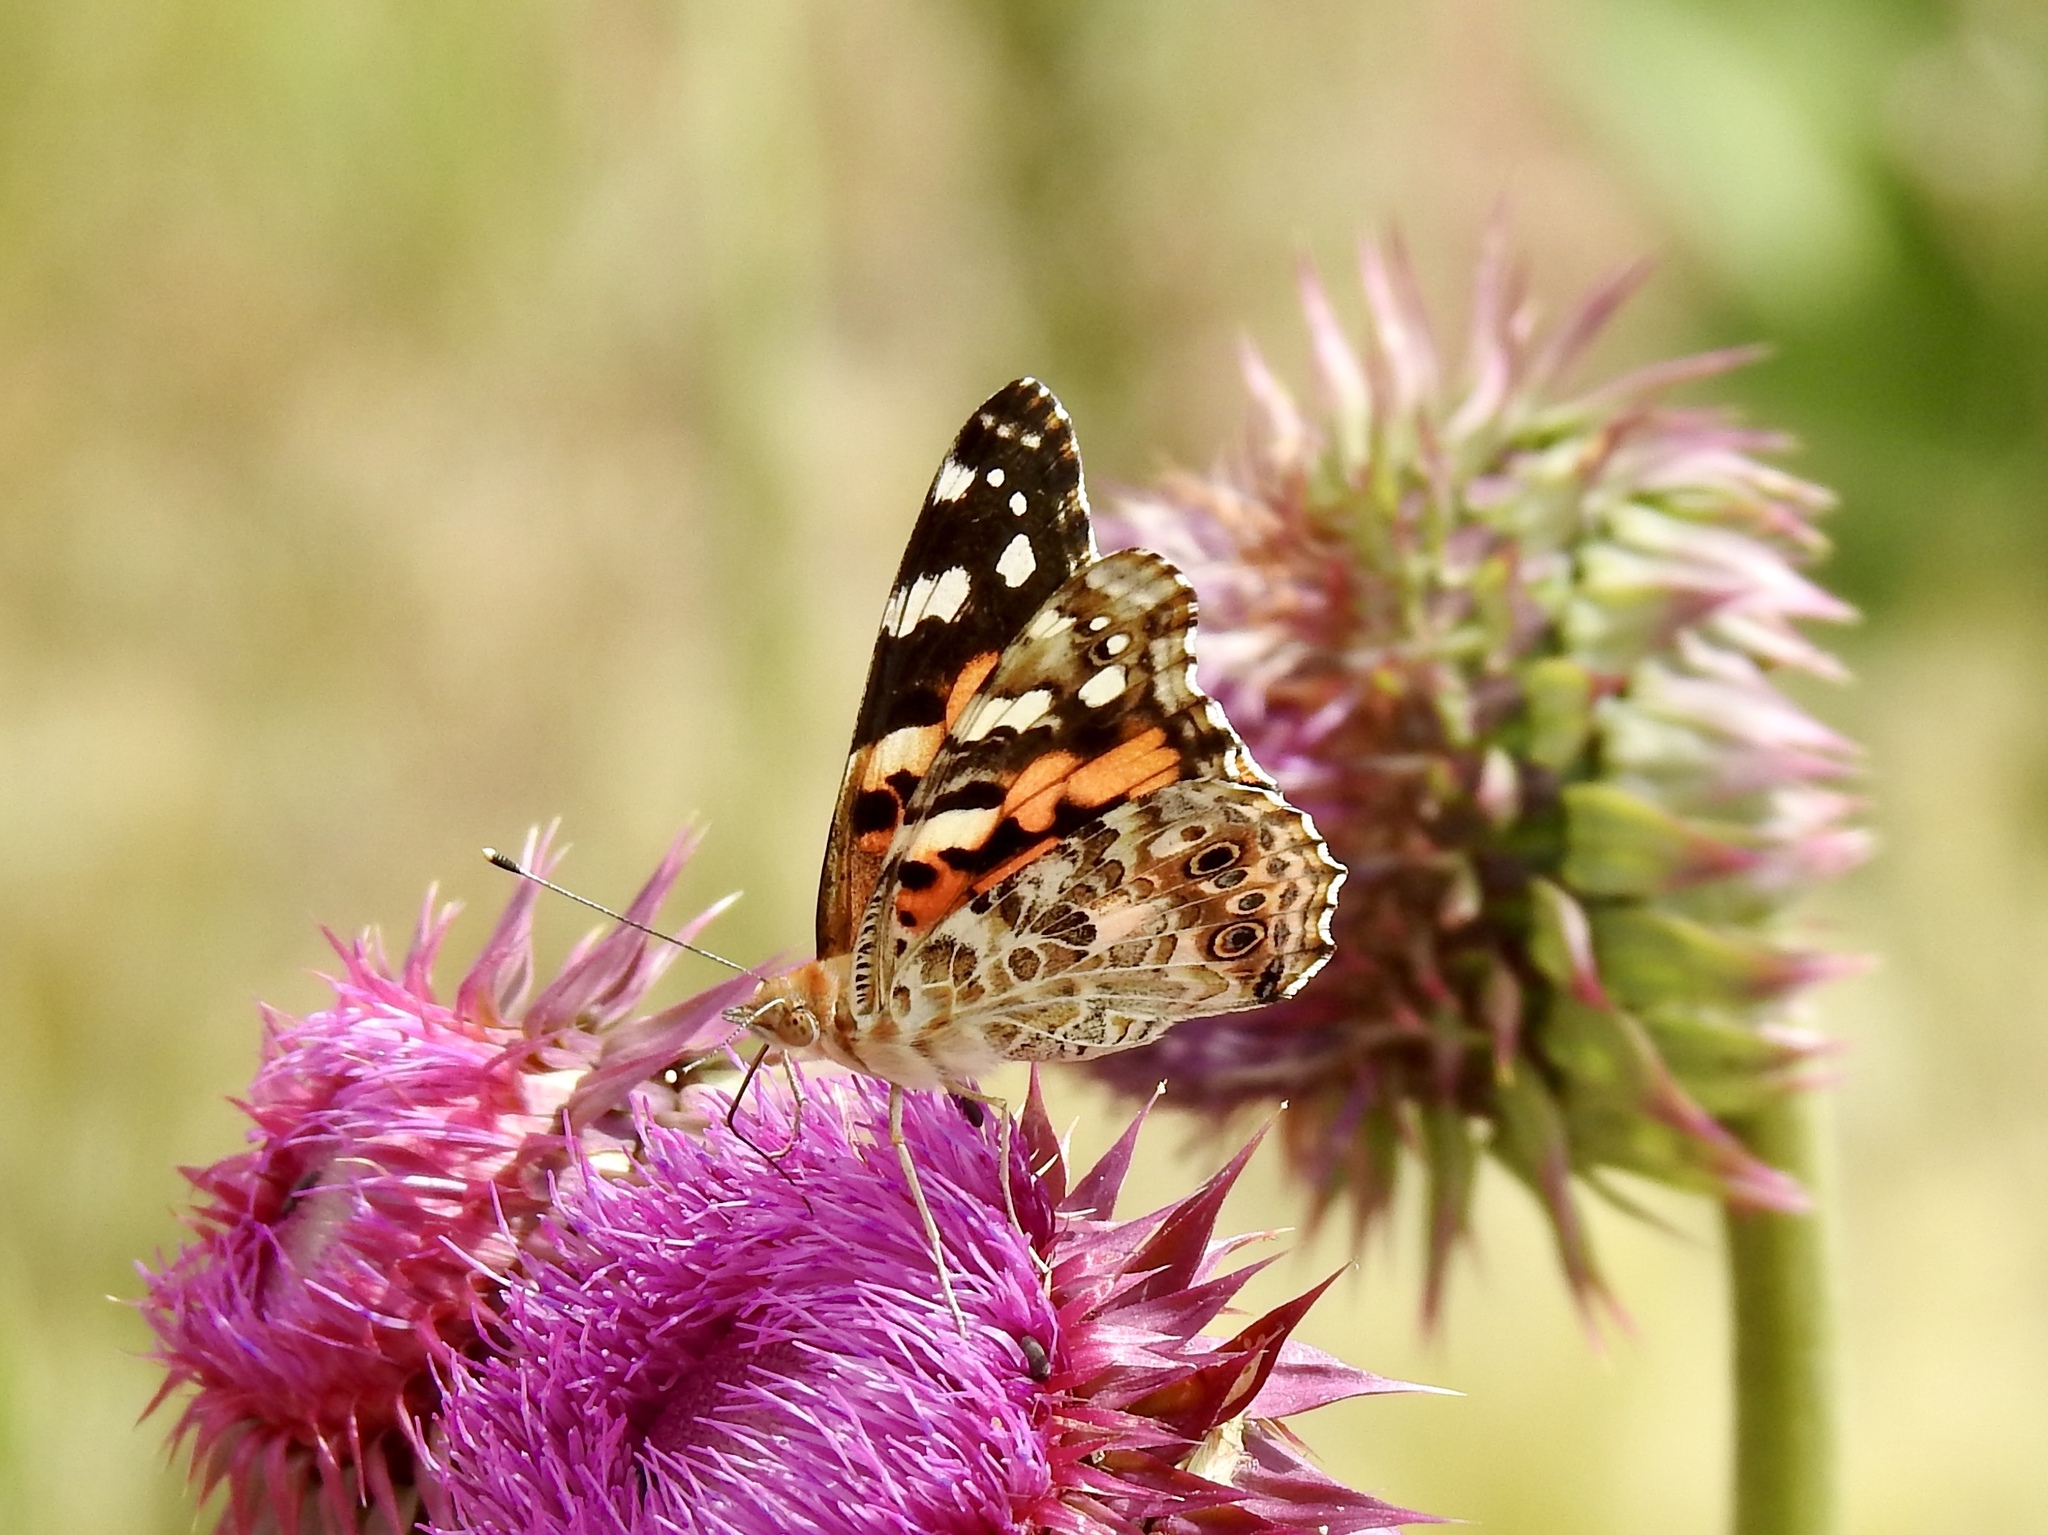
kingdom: Animalia
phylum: Arthropoda
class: Insecta
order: Lepidoptera
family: Nymphalidae
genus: Vanessa
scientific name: Vanessa cardui
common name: Painted lady
